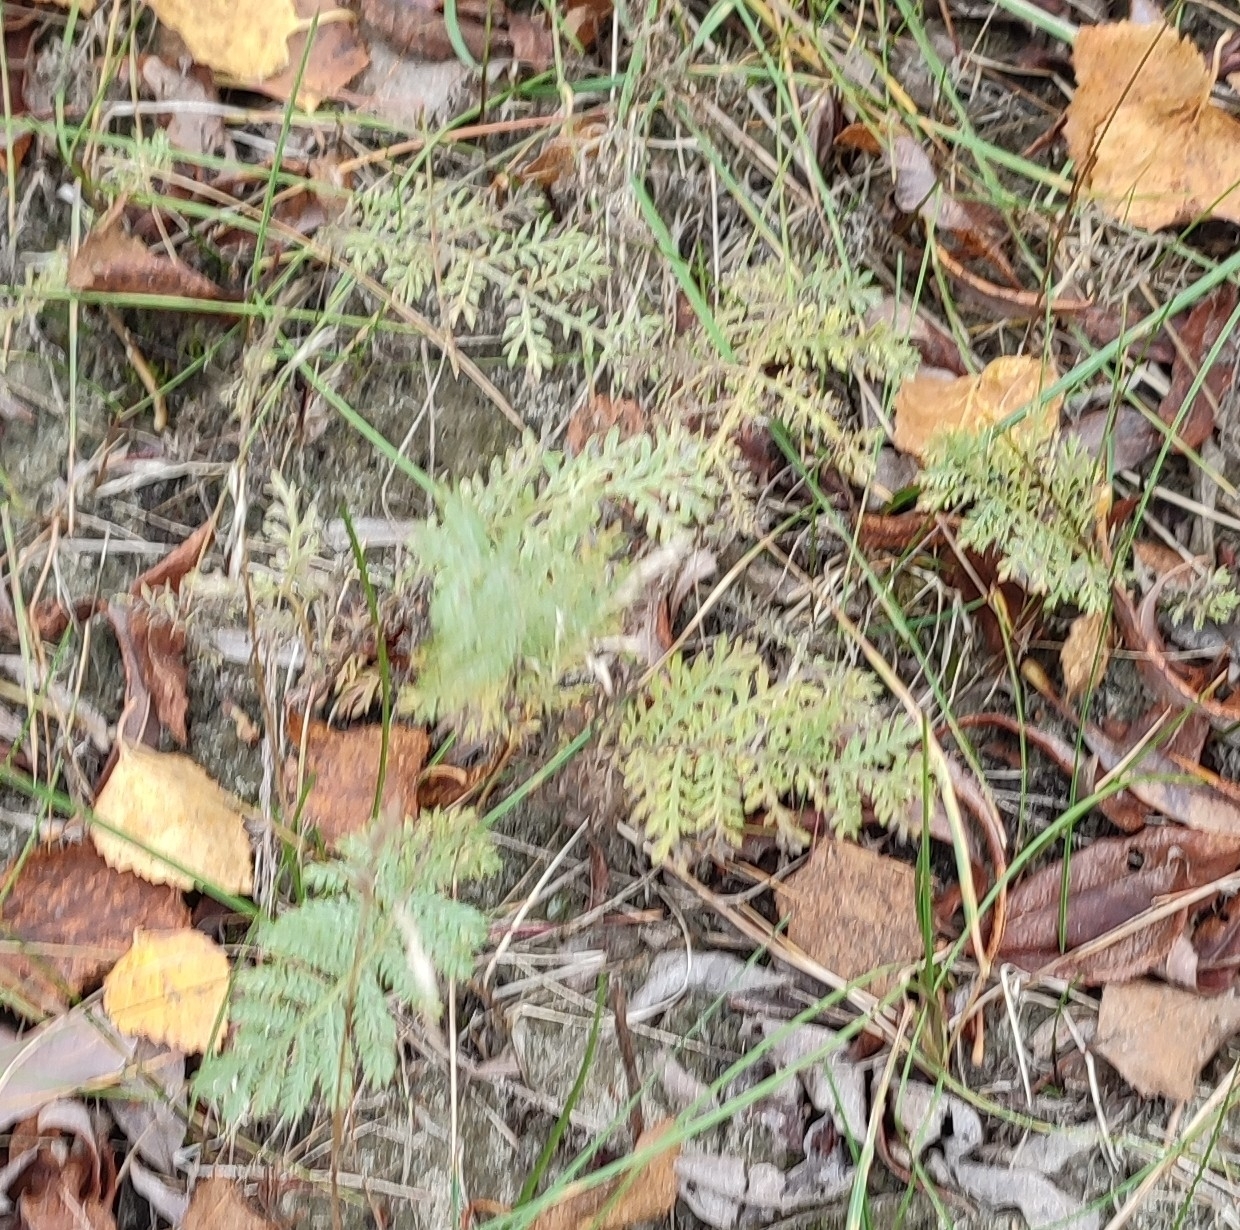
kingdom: Plantae
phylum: Tracheophyta
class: Magnoliopsida
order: Asterales
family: Asteraceae
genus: Tanacetum
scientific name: Tanacetum bipinnatum
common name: Dwarf tansy
